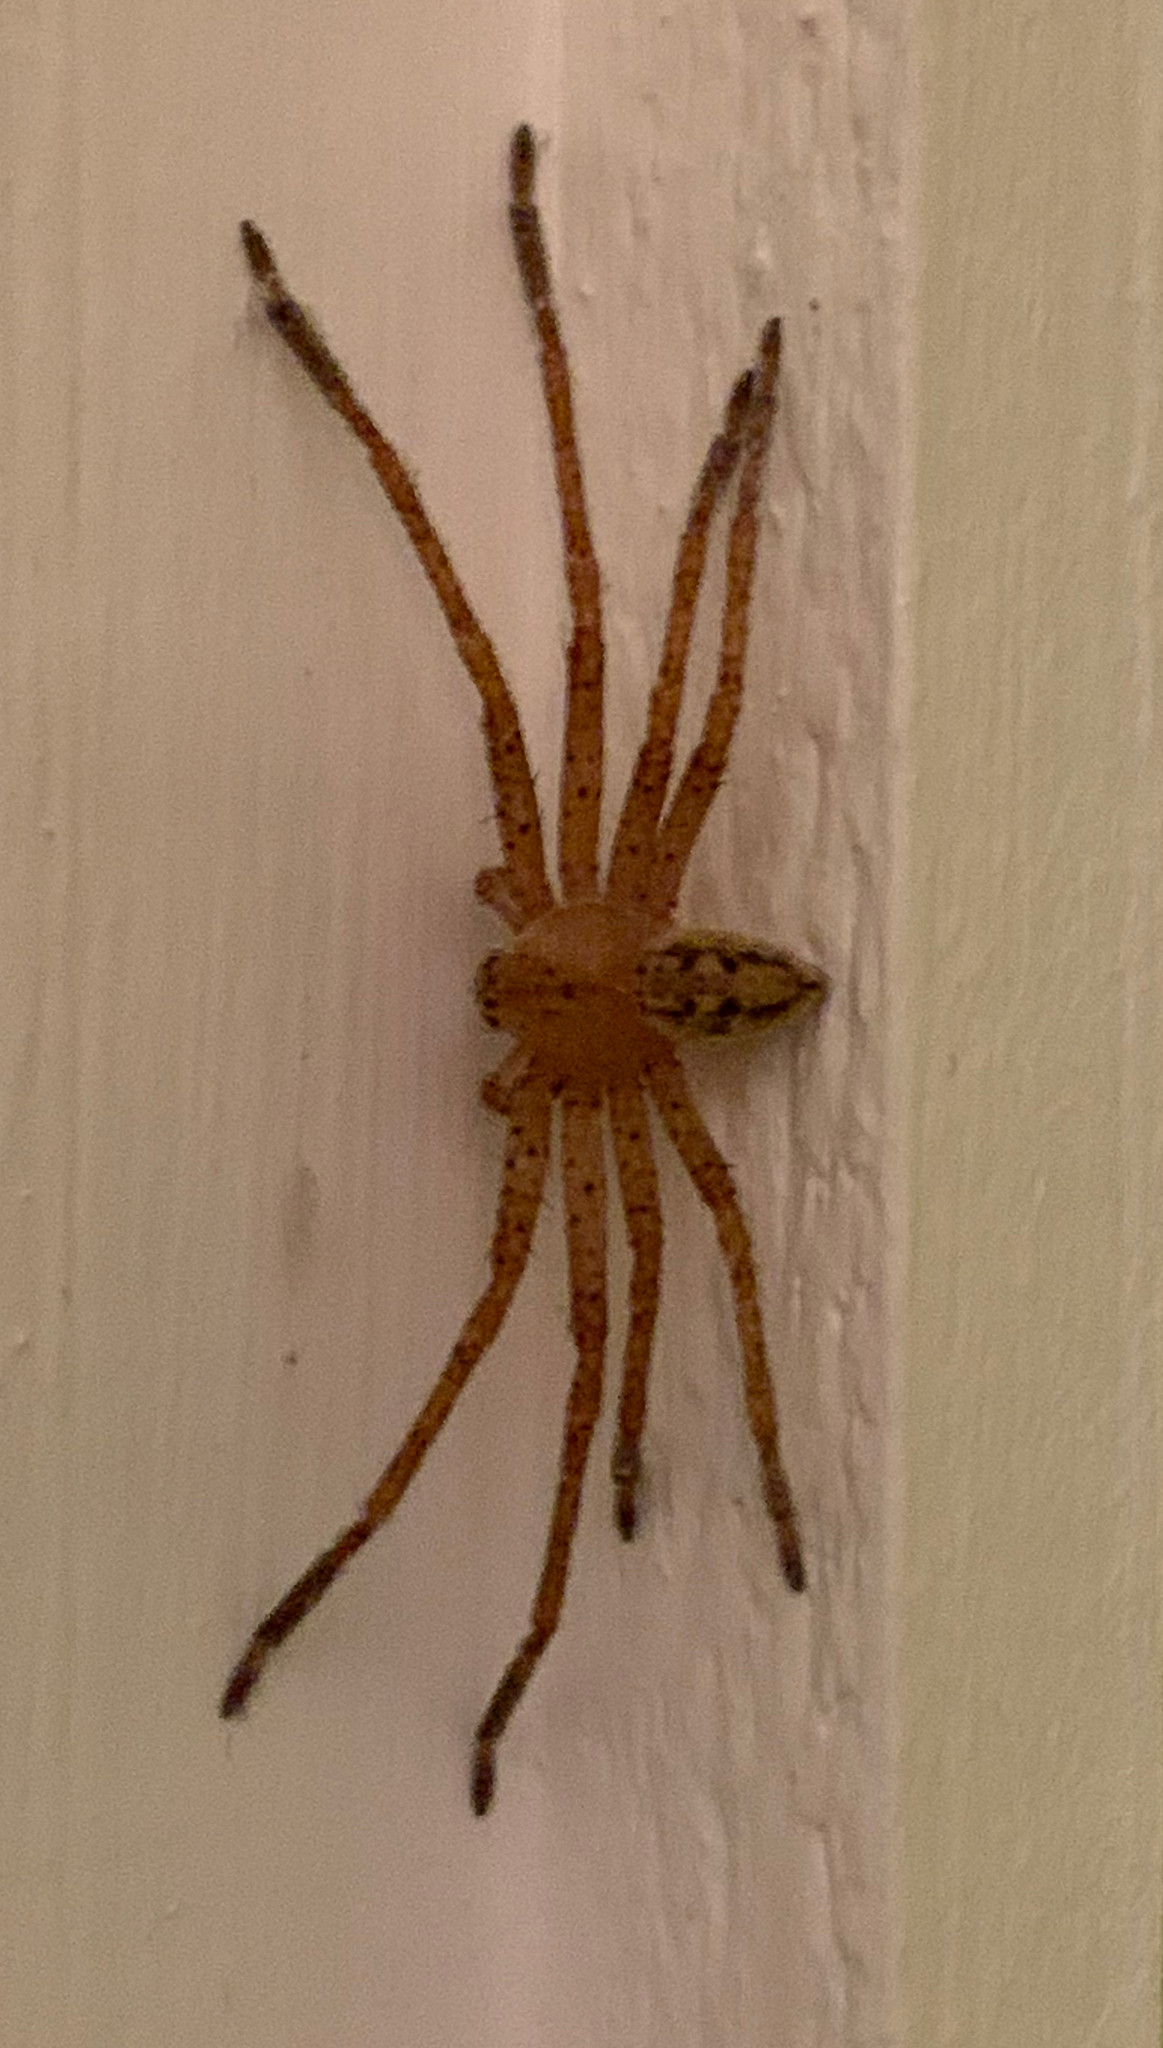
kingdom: Animalia
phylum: Arthropoda
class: Arachnida
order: Araneae
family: Sparassidae
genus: Olios
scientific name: Olios argelasius
